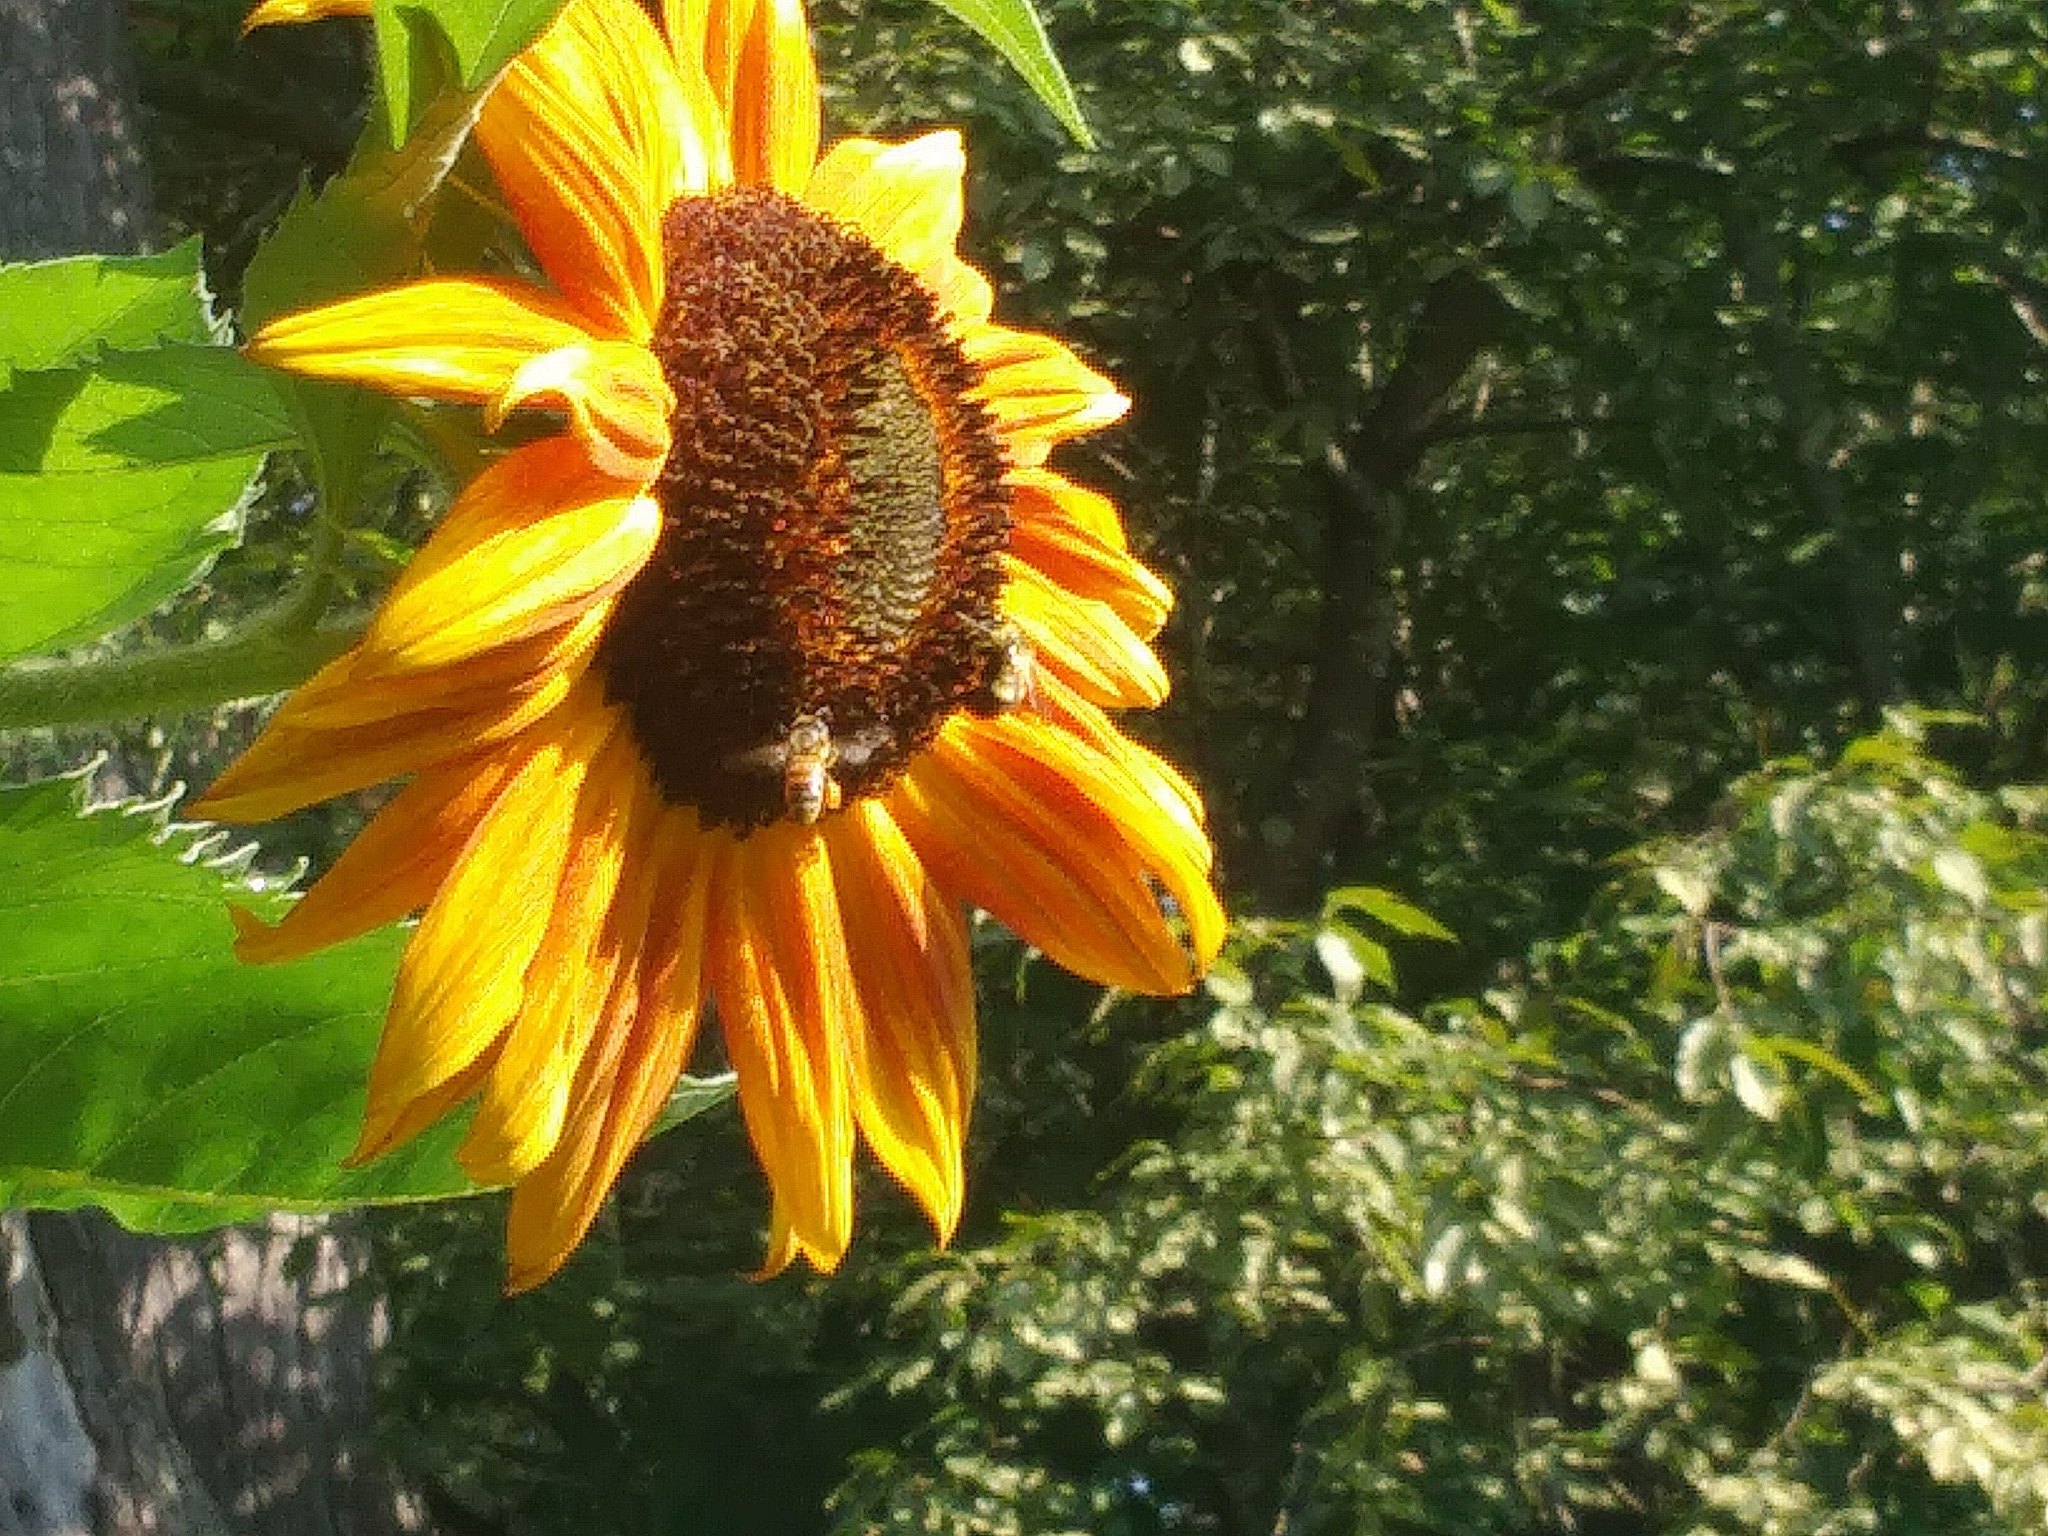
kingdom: Animalia
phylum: Arthropoda
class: Insecta
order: Hymenoptera
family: Apidae
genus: Apis
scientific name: Apis mellifera
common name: Honey bee
